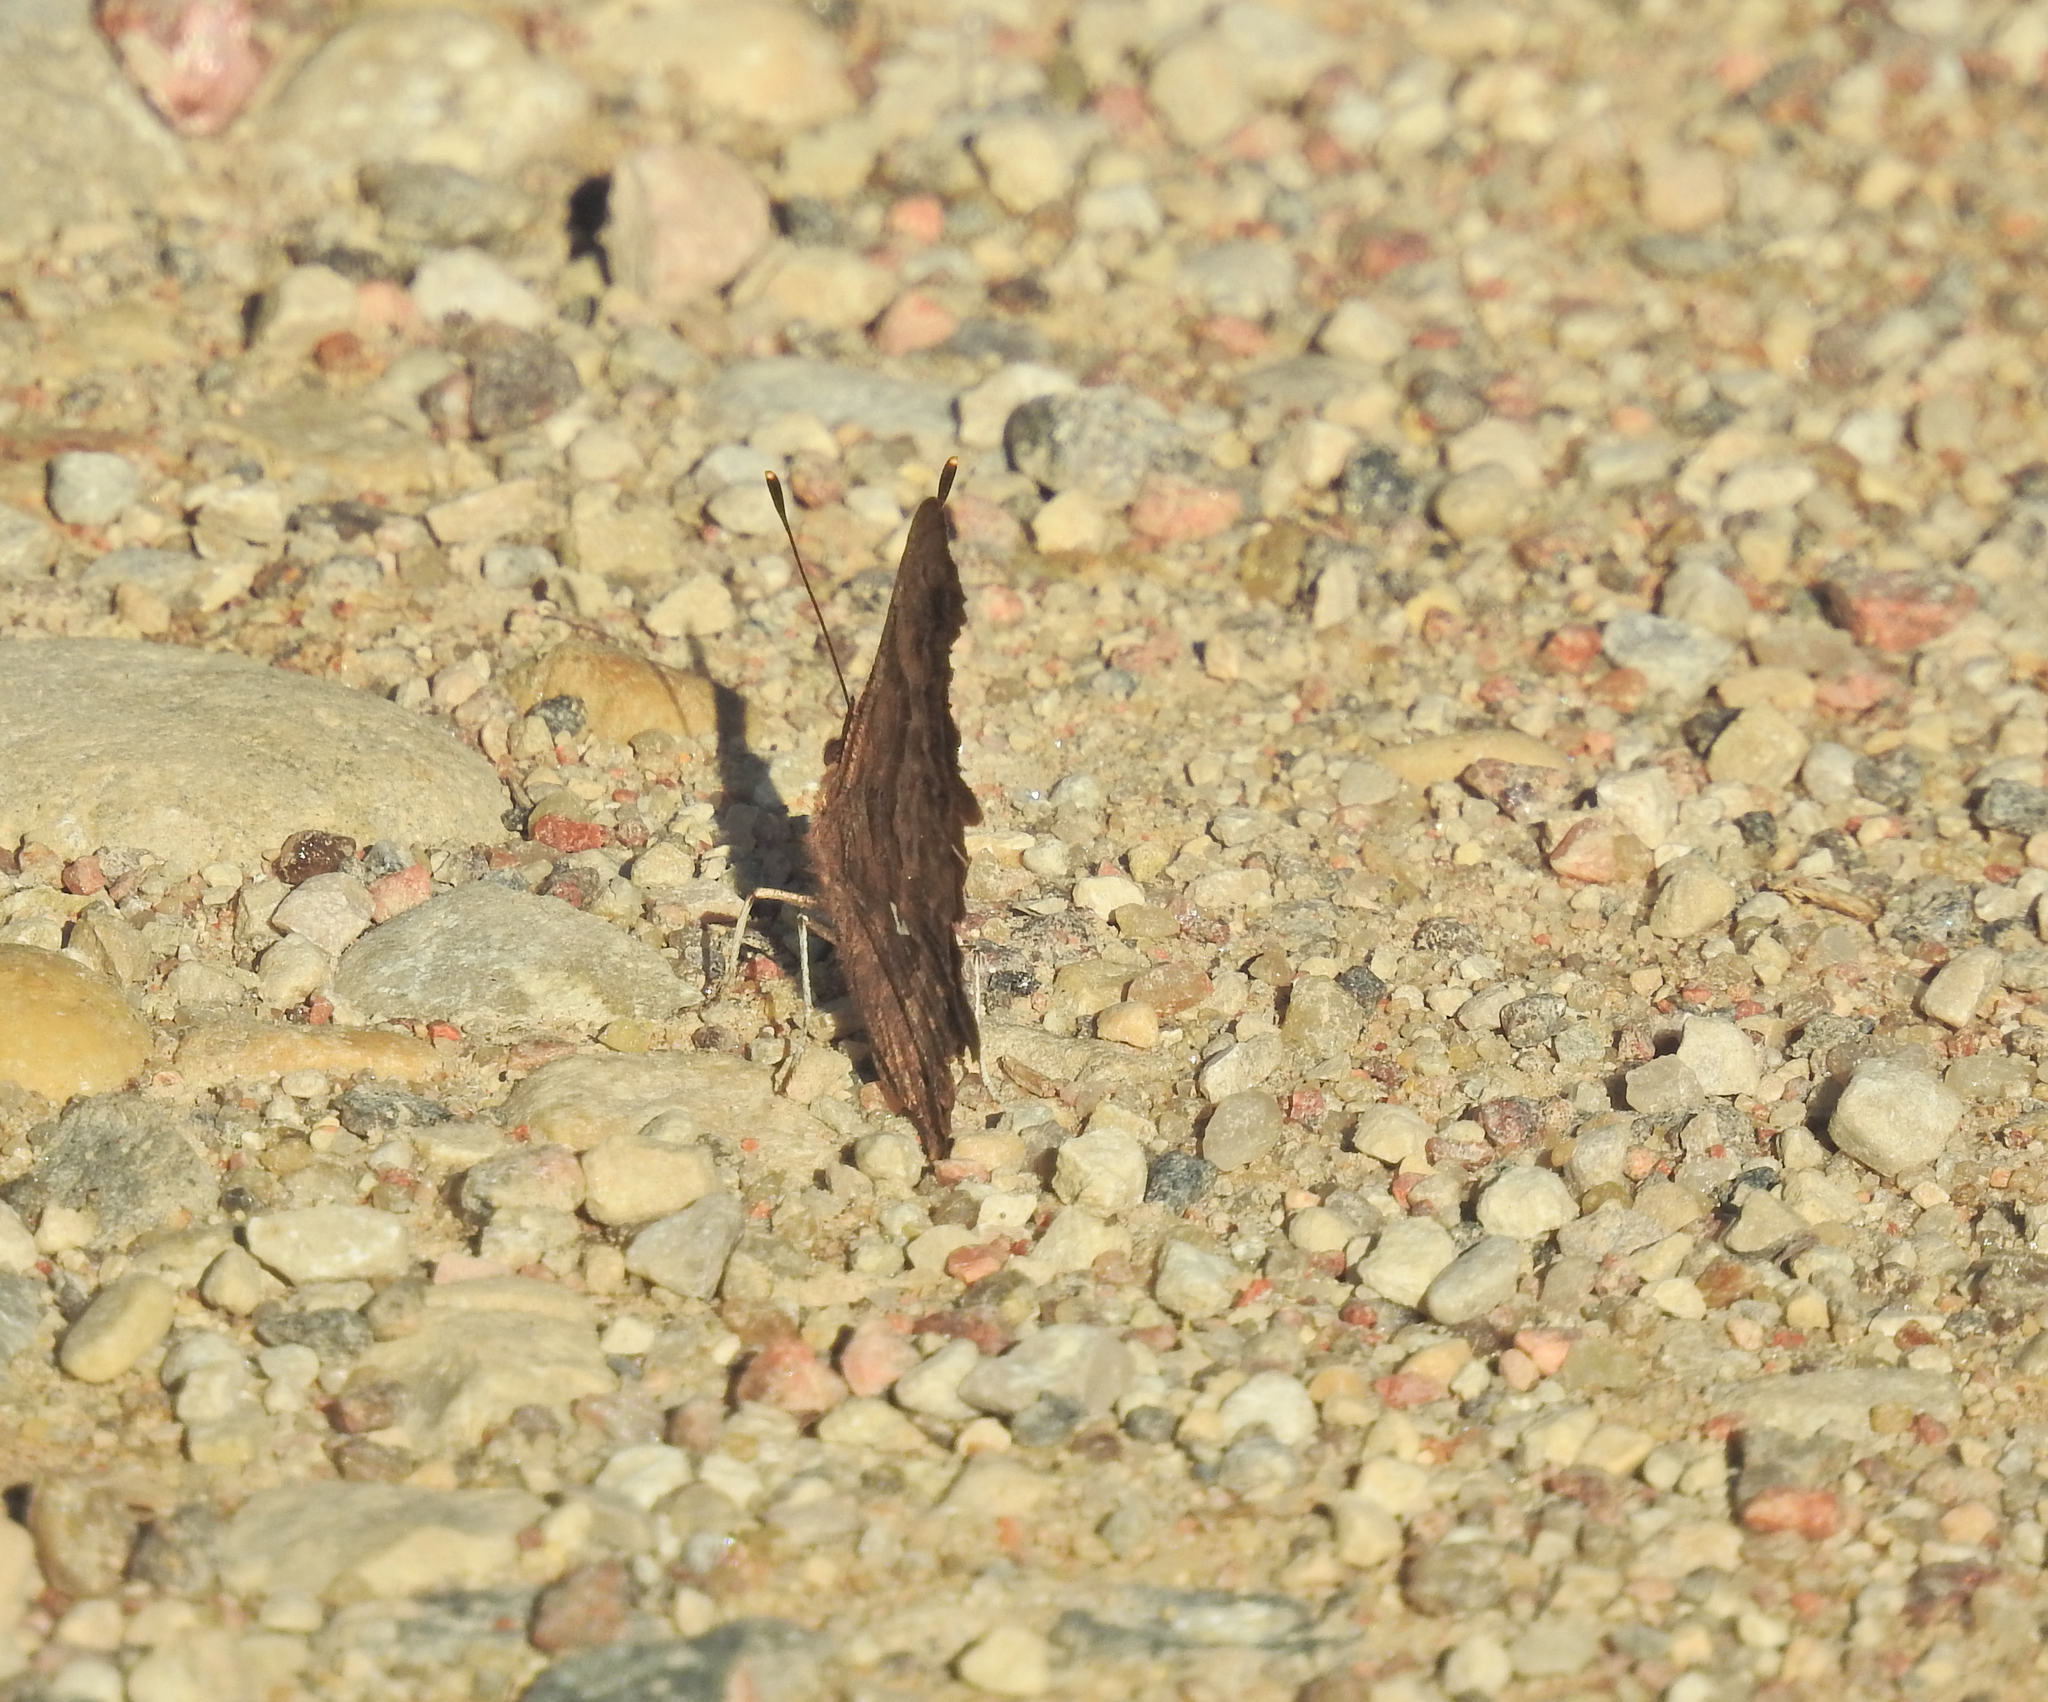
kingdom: Animalia
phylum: Arthropoda
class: Insecta
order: Lepidoptera
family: Nymphalidae
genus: Polygonia
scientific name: Polygonia c-album
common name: Comma
